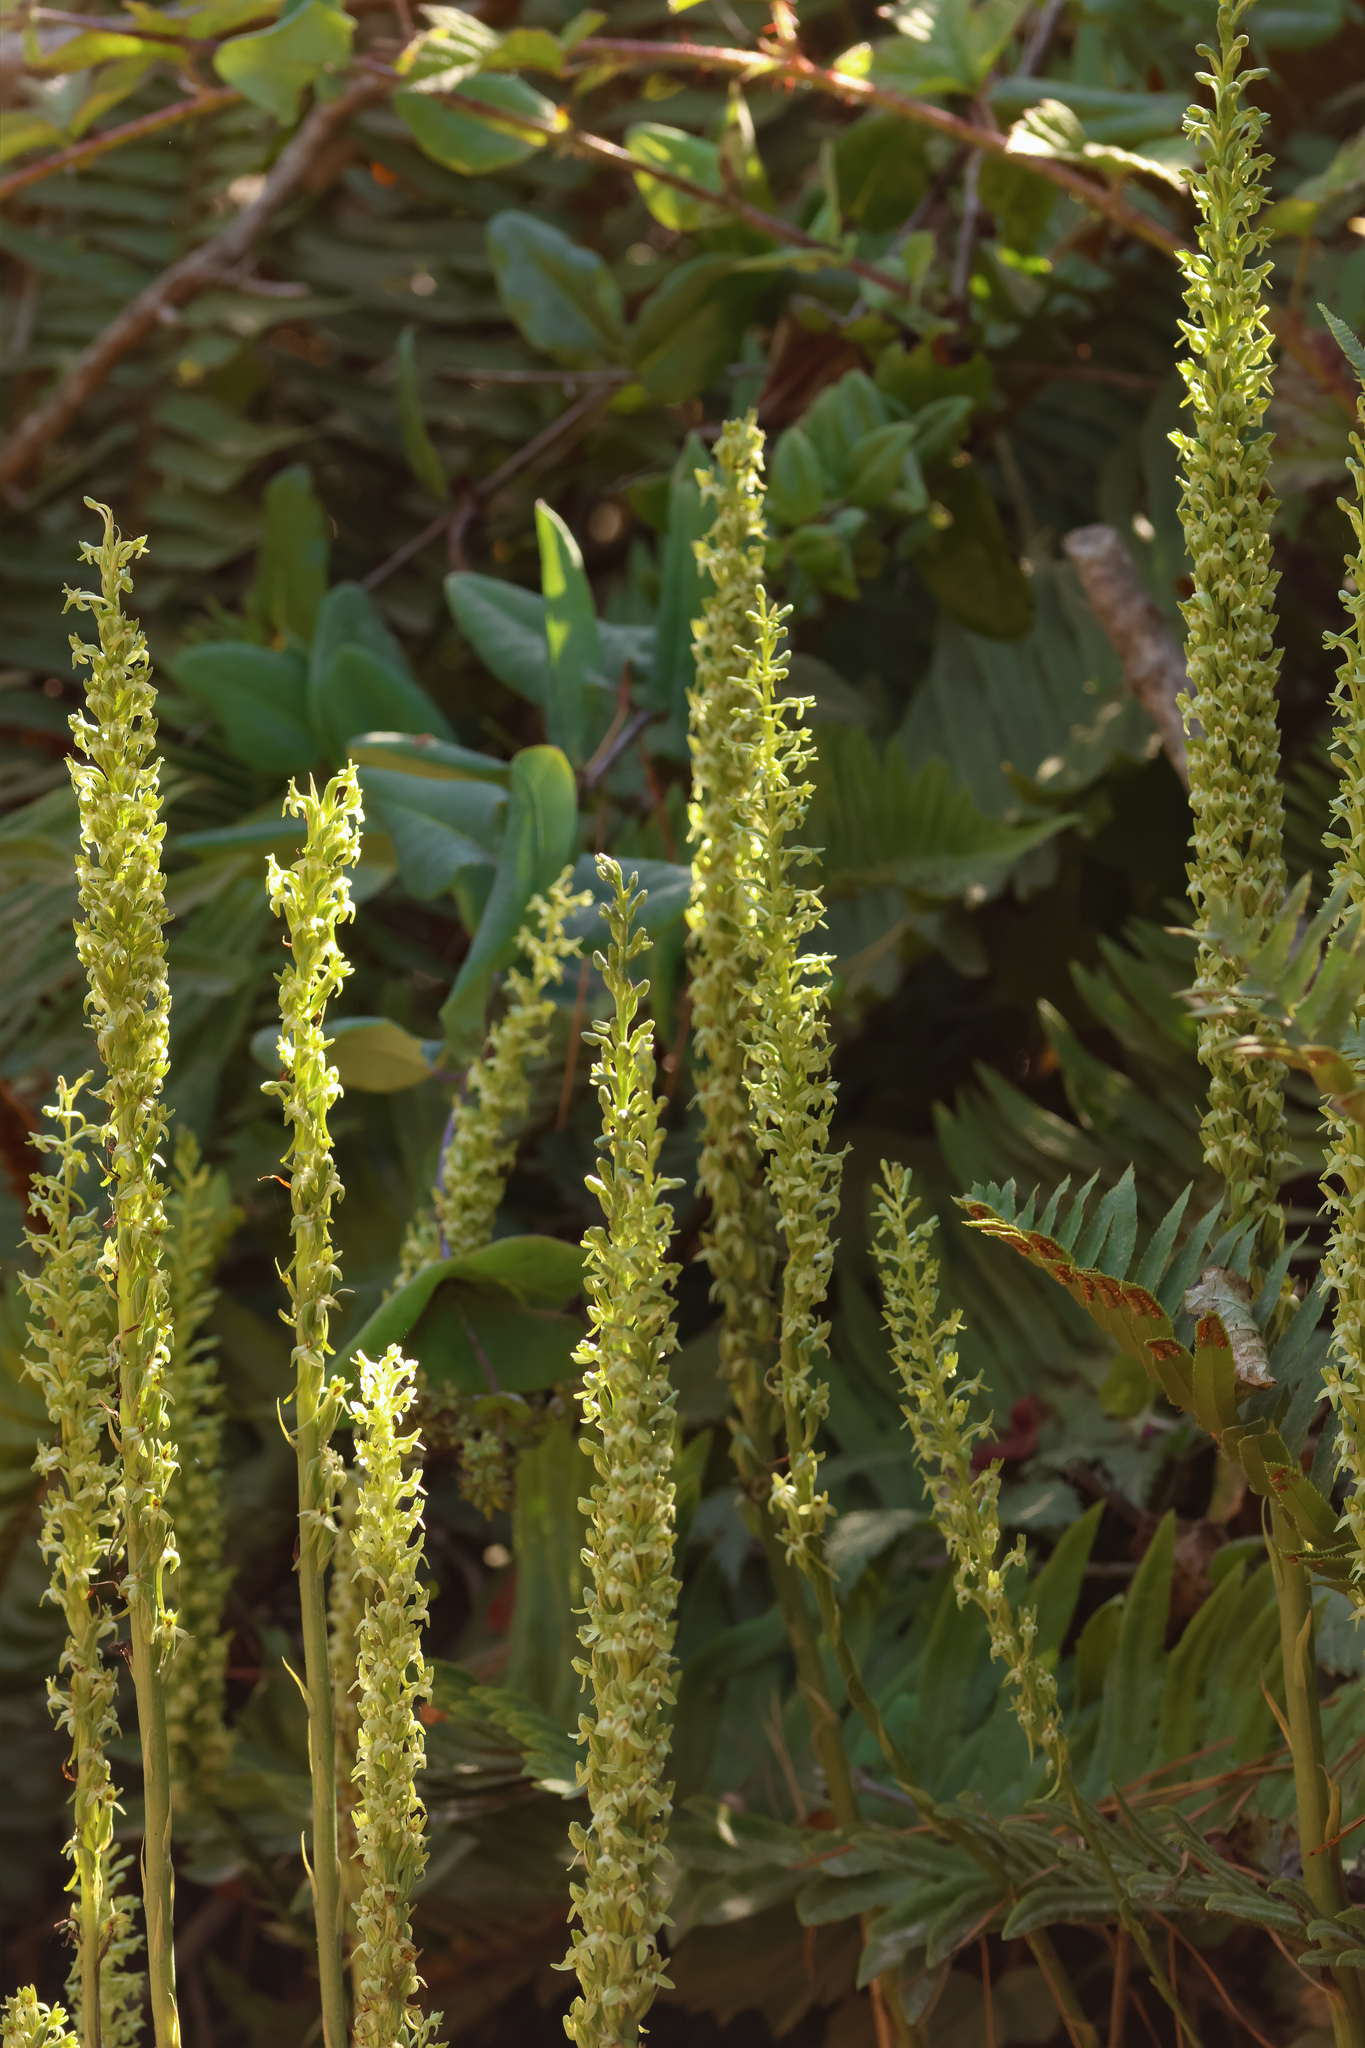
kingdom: Plantae
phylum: Tracheophyta
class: Liliopsida
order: Asparagales
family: Orchidaceae
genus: Platanthera
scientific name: Platanthera elongata
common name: Dense-flowered rein orchid
